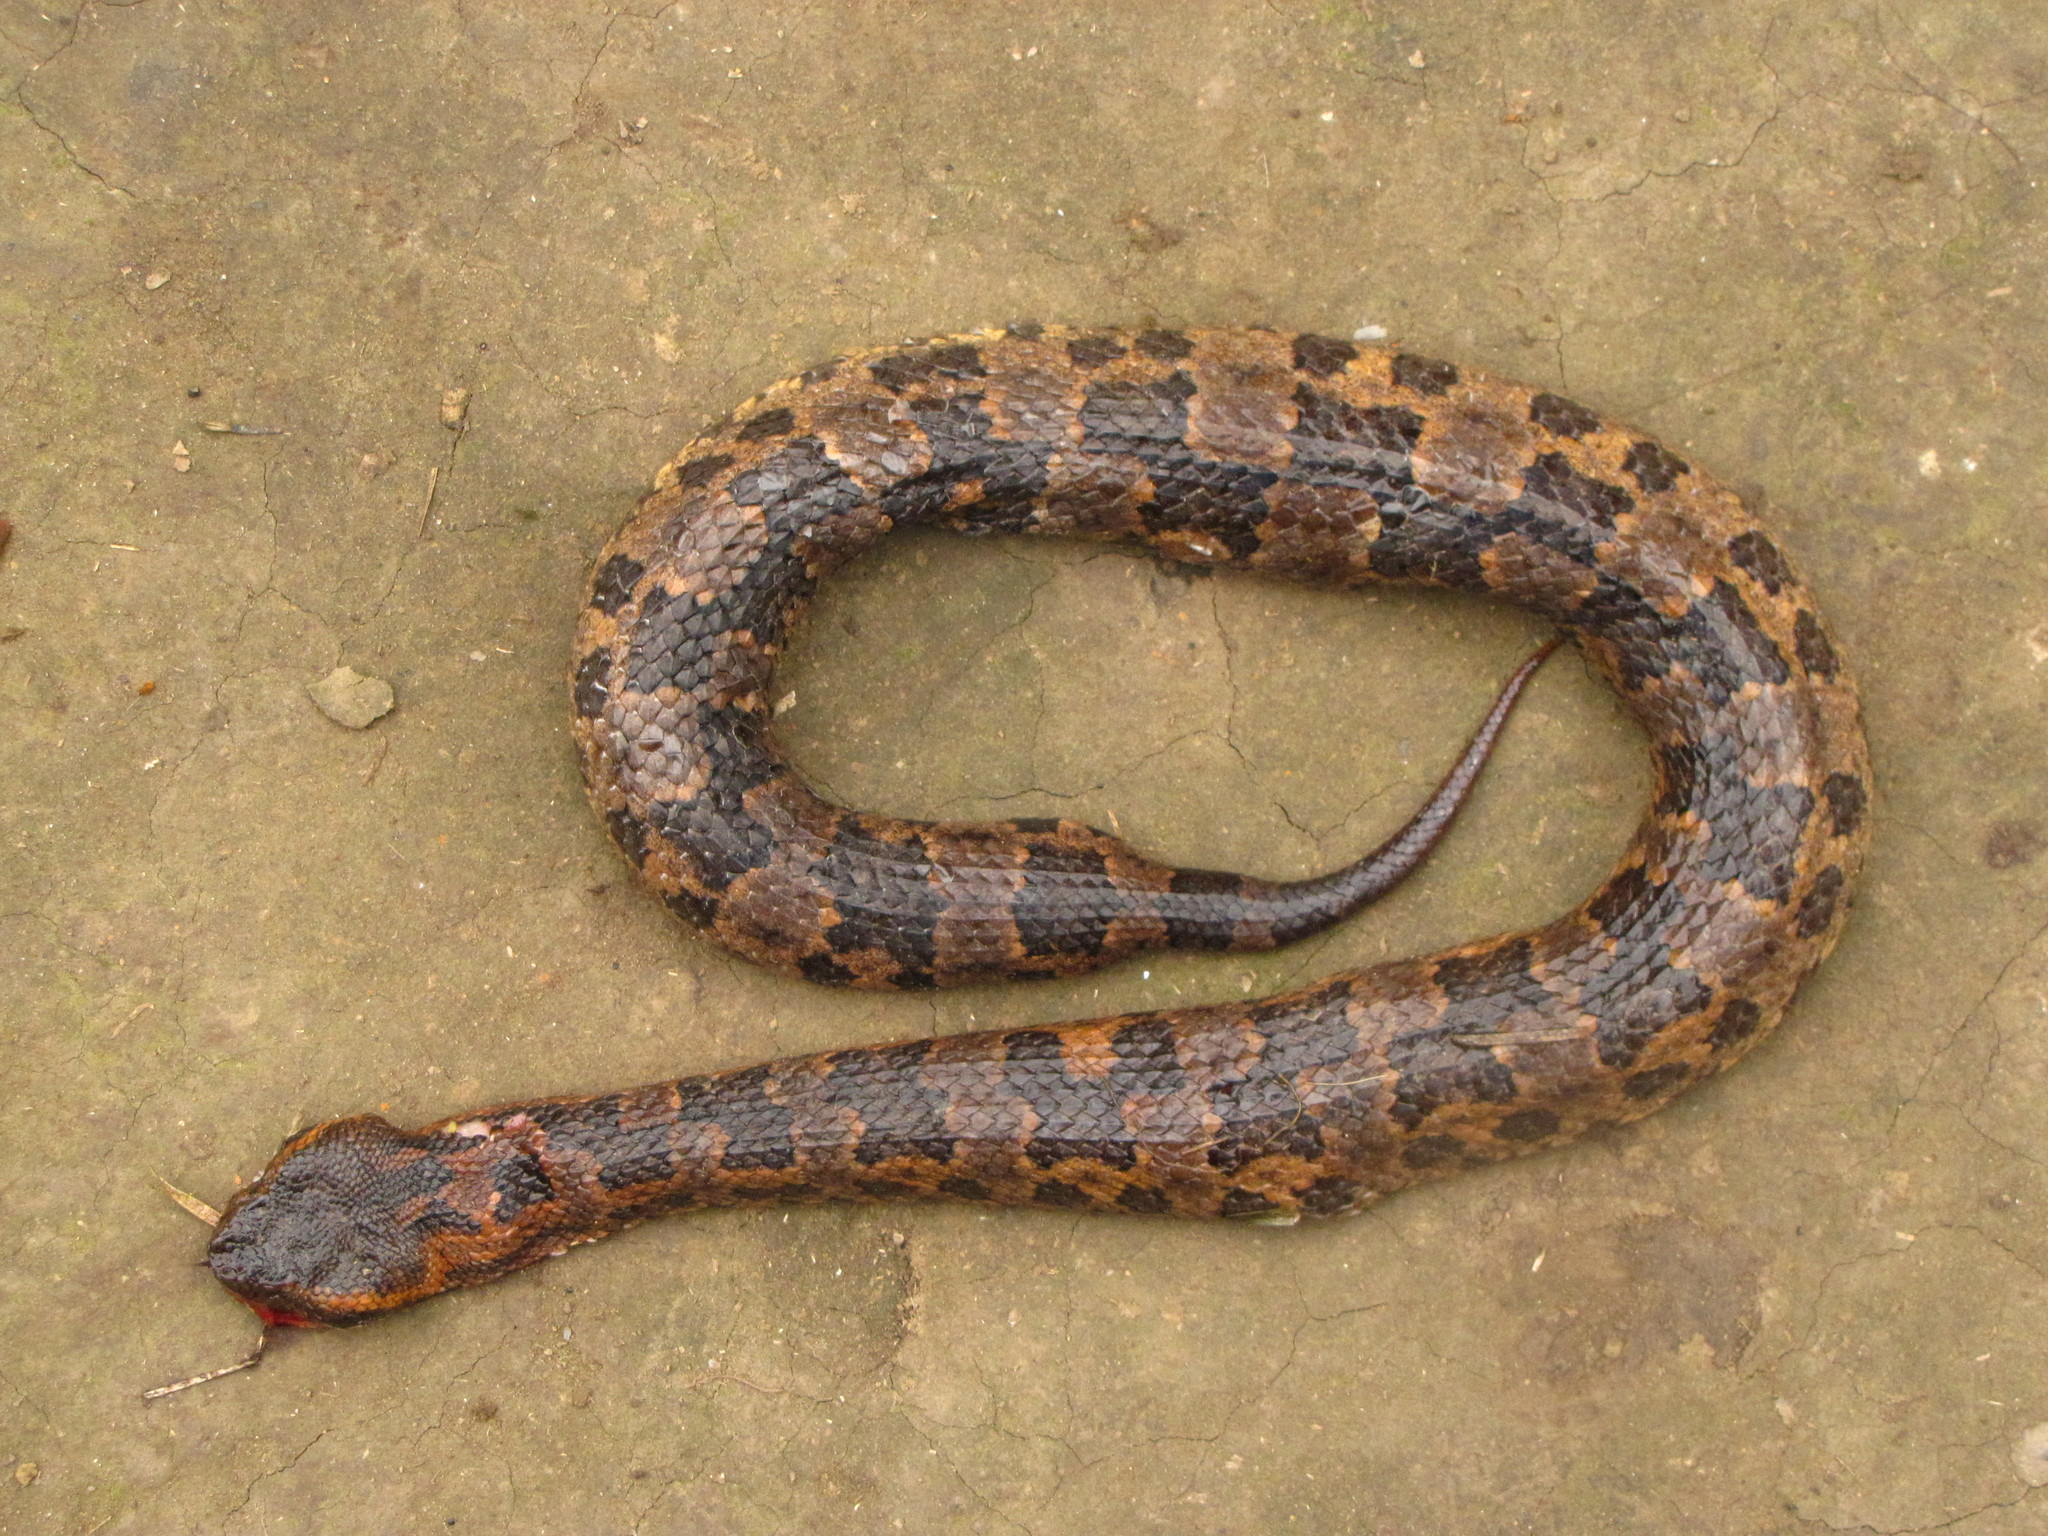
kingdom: Animalia
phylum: Chordata
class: Squamata
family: Viperidae
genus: Ovophis
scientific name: Ovophis monticola
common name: Mountain pit viper
